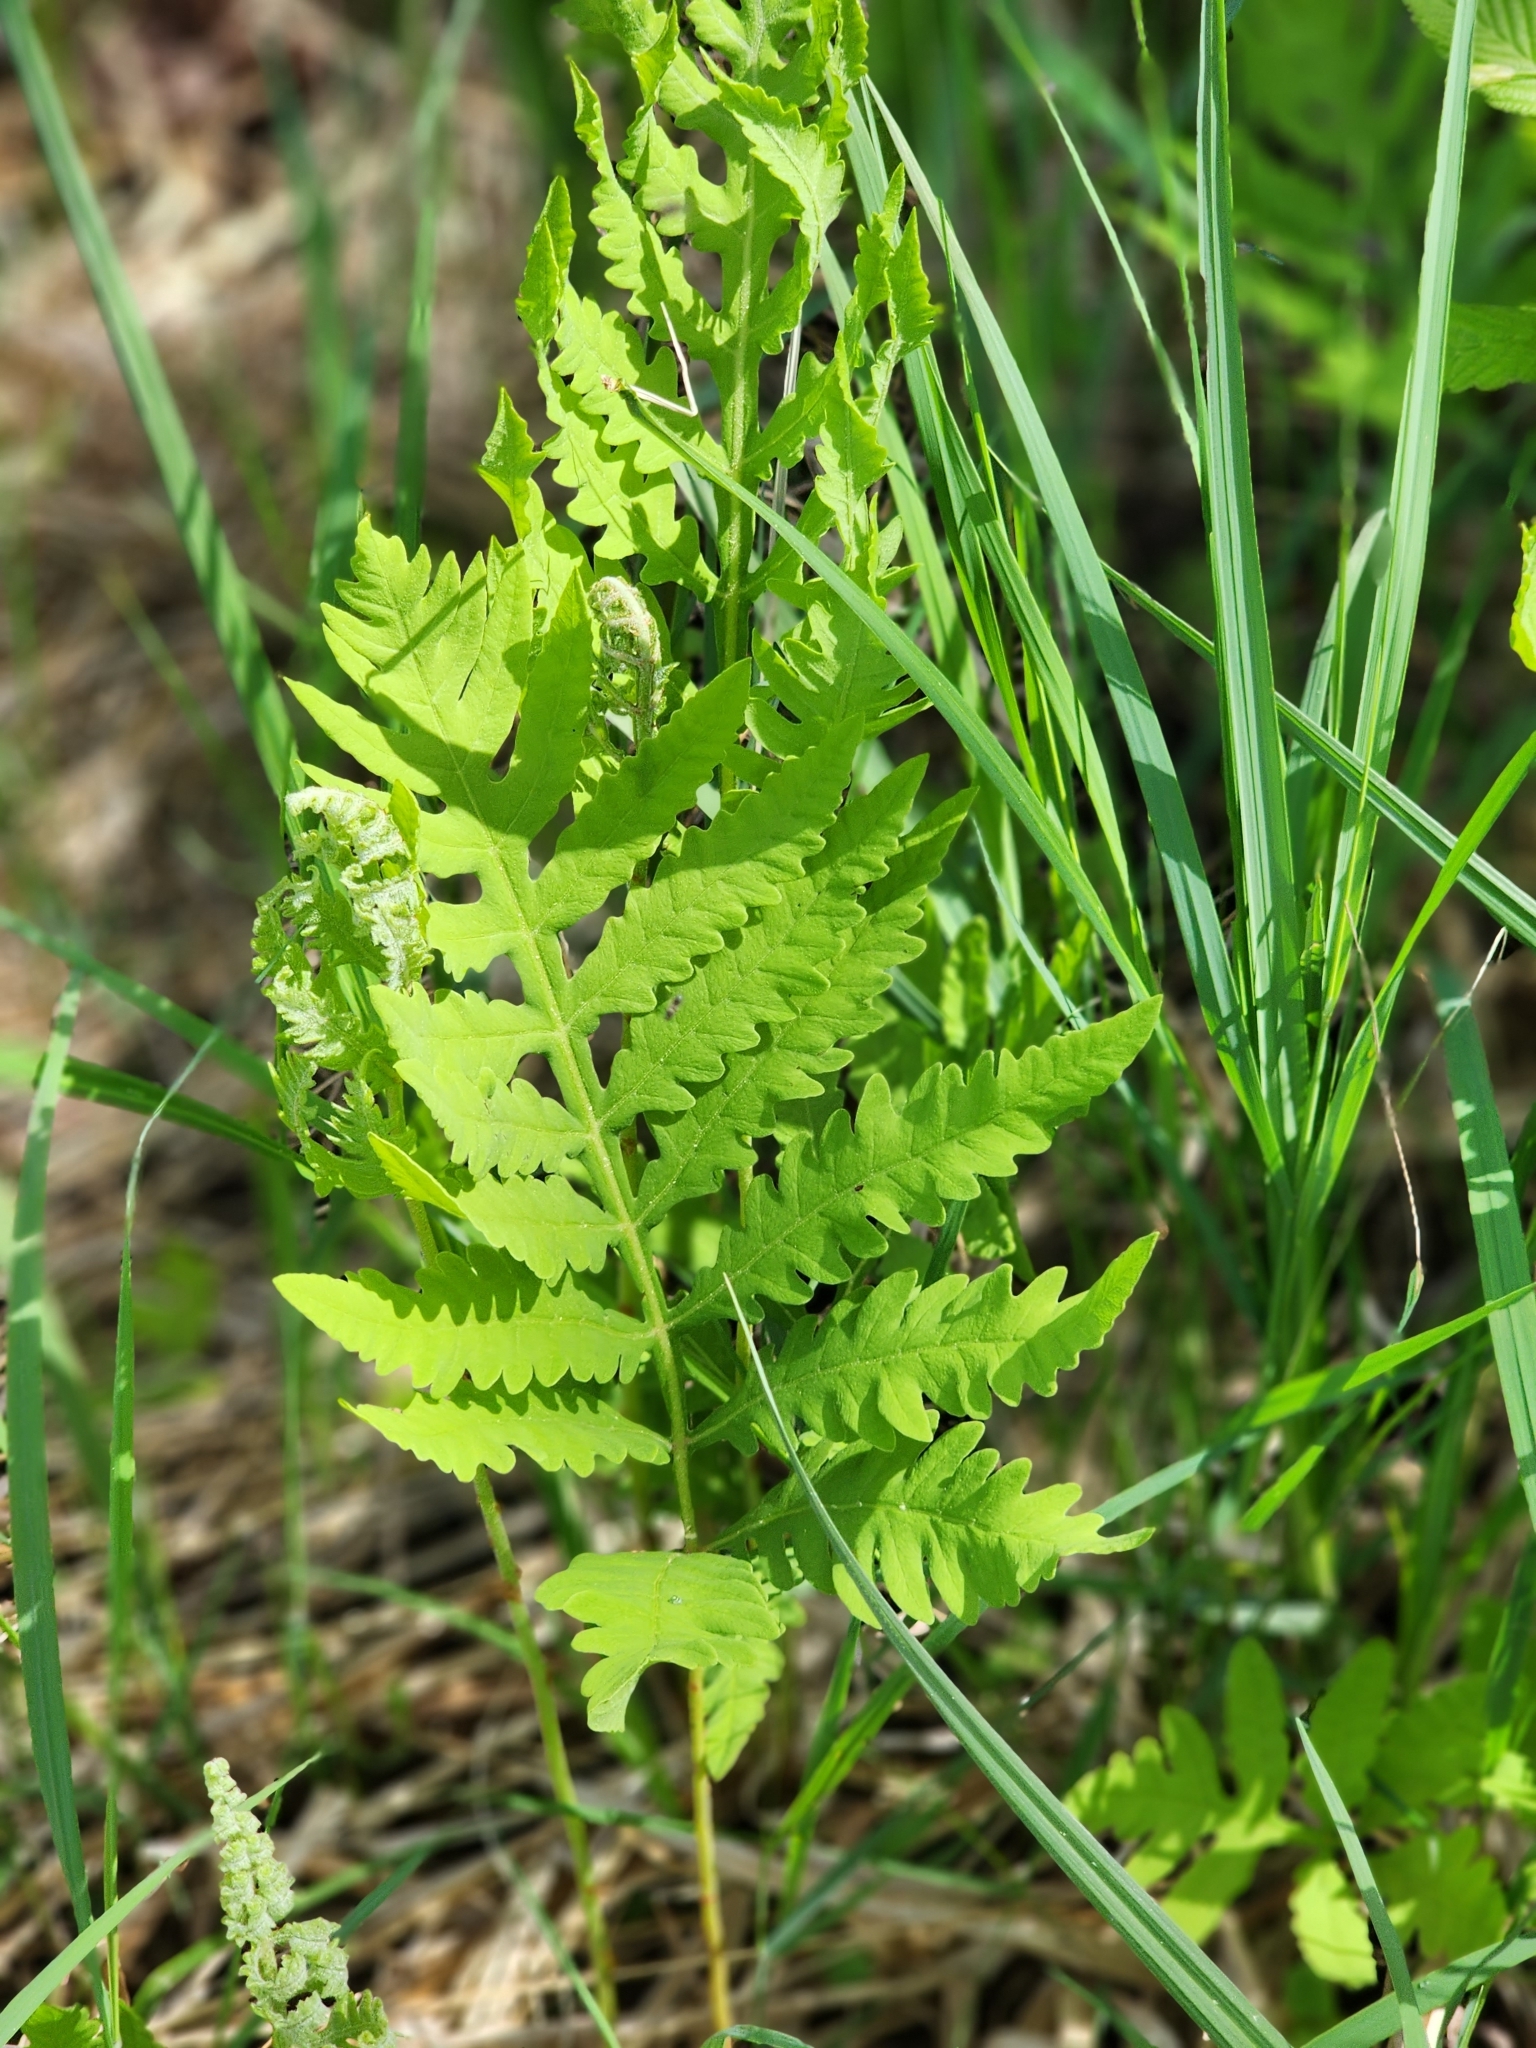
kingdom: Plantae
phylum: Tracheophyta
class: Polypodiopsida
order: Polypodiales
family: Onocleaceae
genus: Onoclea
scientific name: Onoclea sensibilis
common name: Sensitive fern
